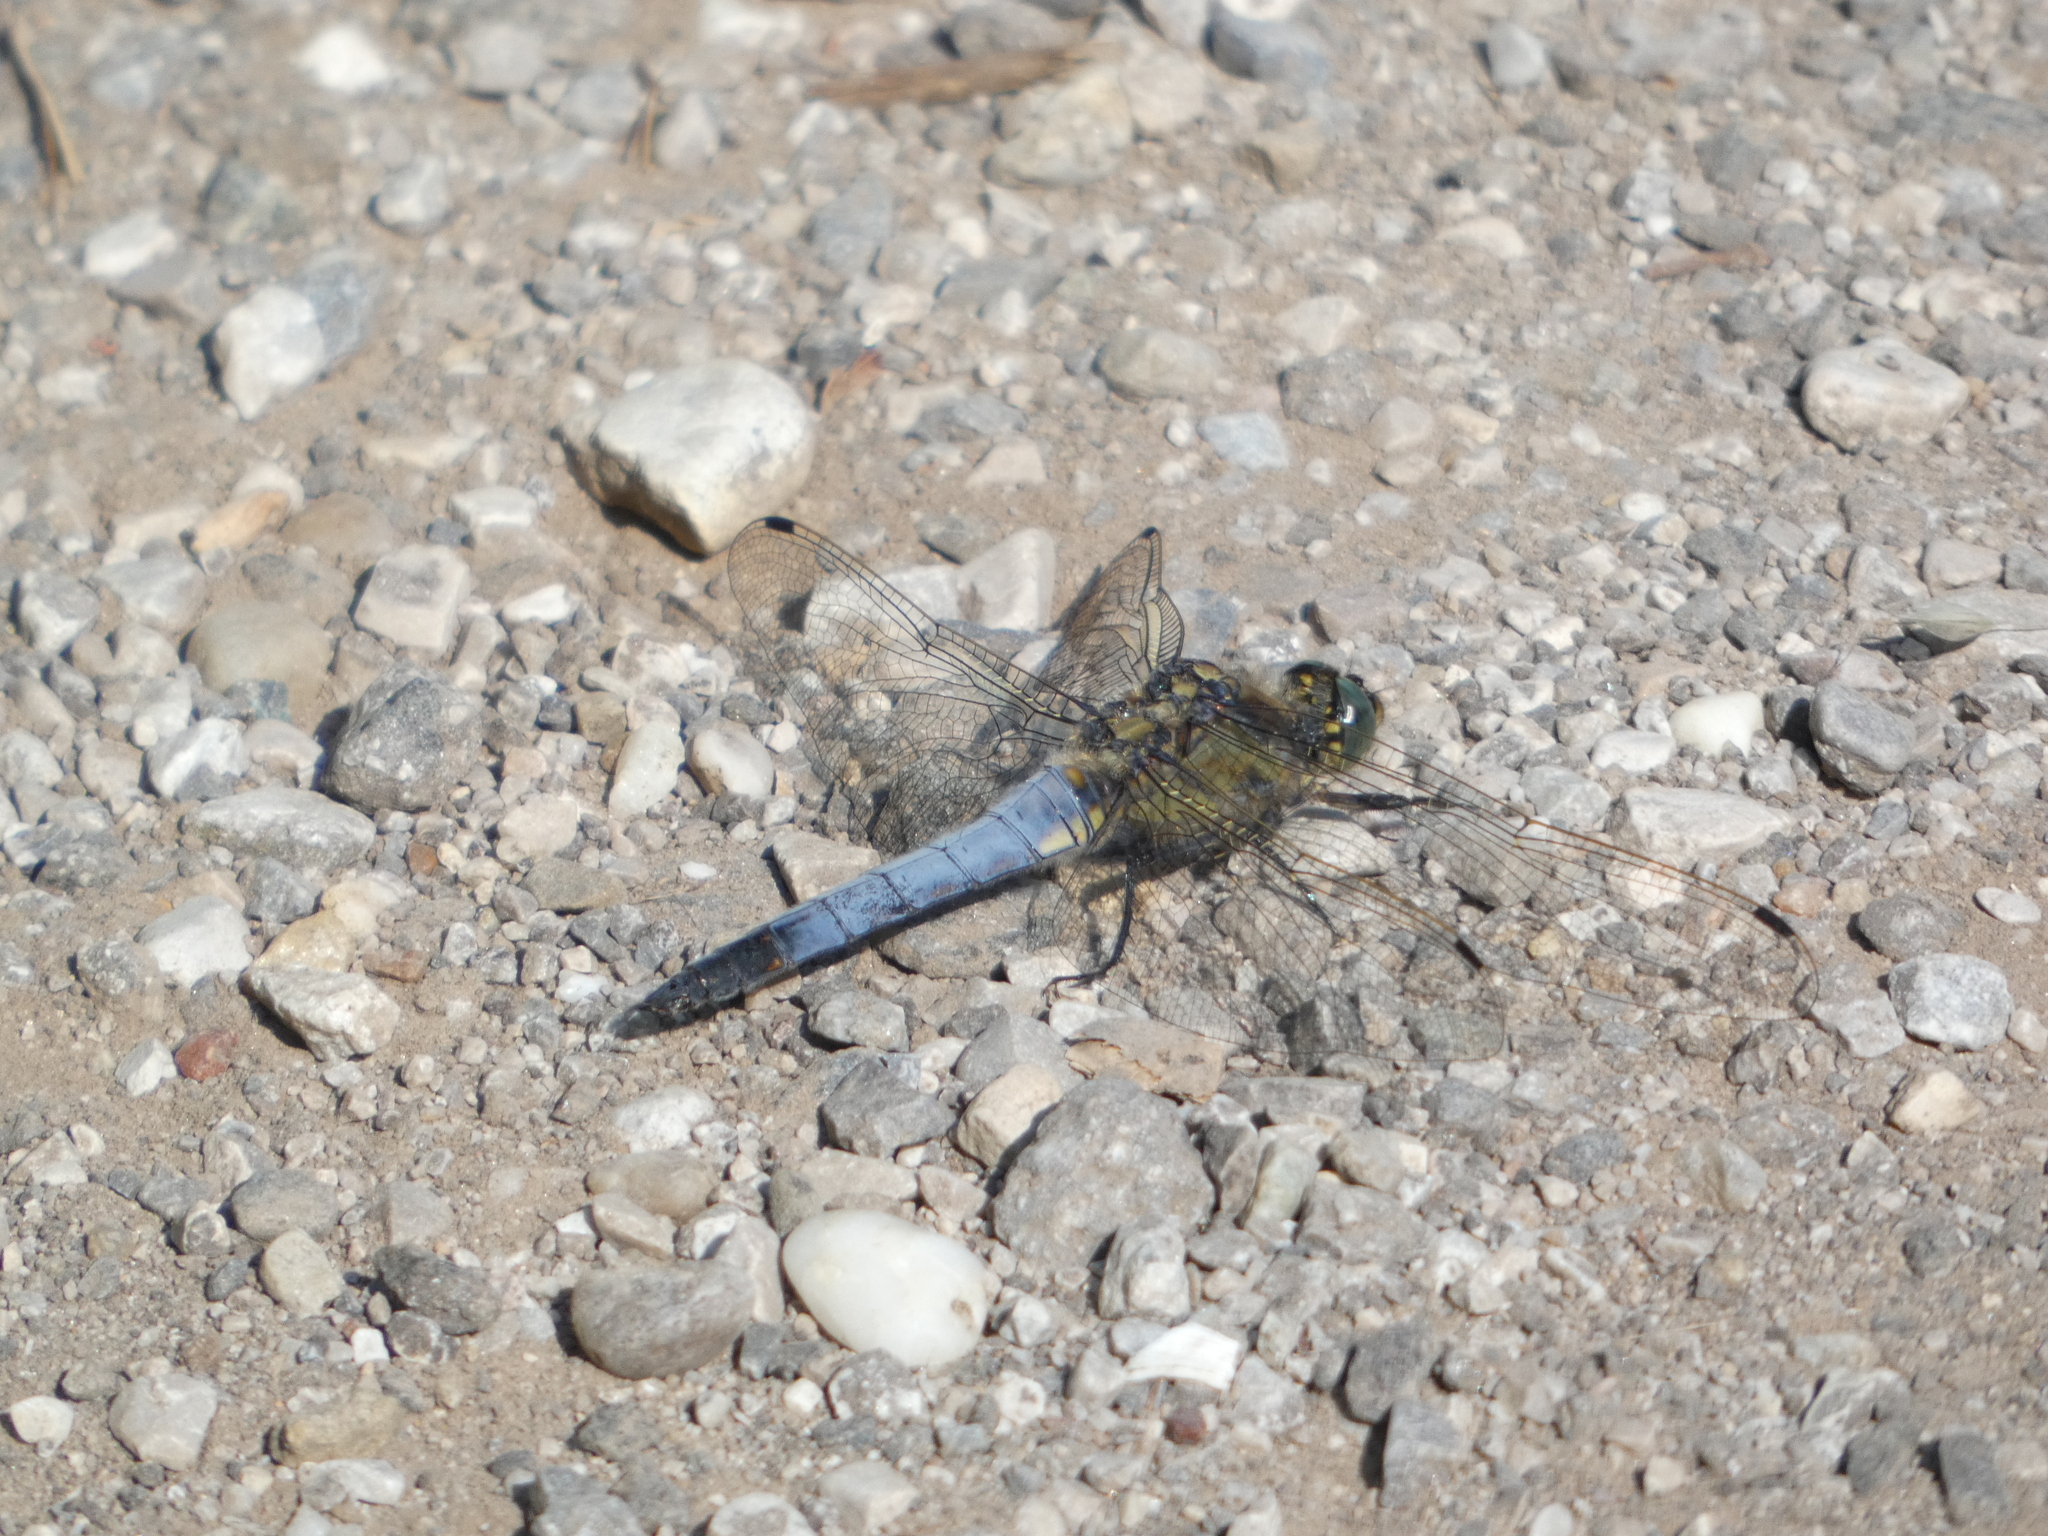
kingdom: Animalia
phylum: Arthropoda
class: Insecta
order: Odonata
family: Libellulidae
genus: Orthetrum
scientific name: Orthetrum cancellatum
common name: Black-tailed skimmer
